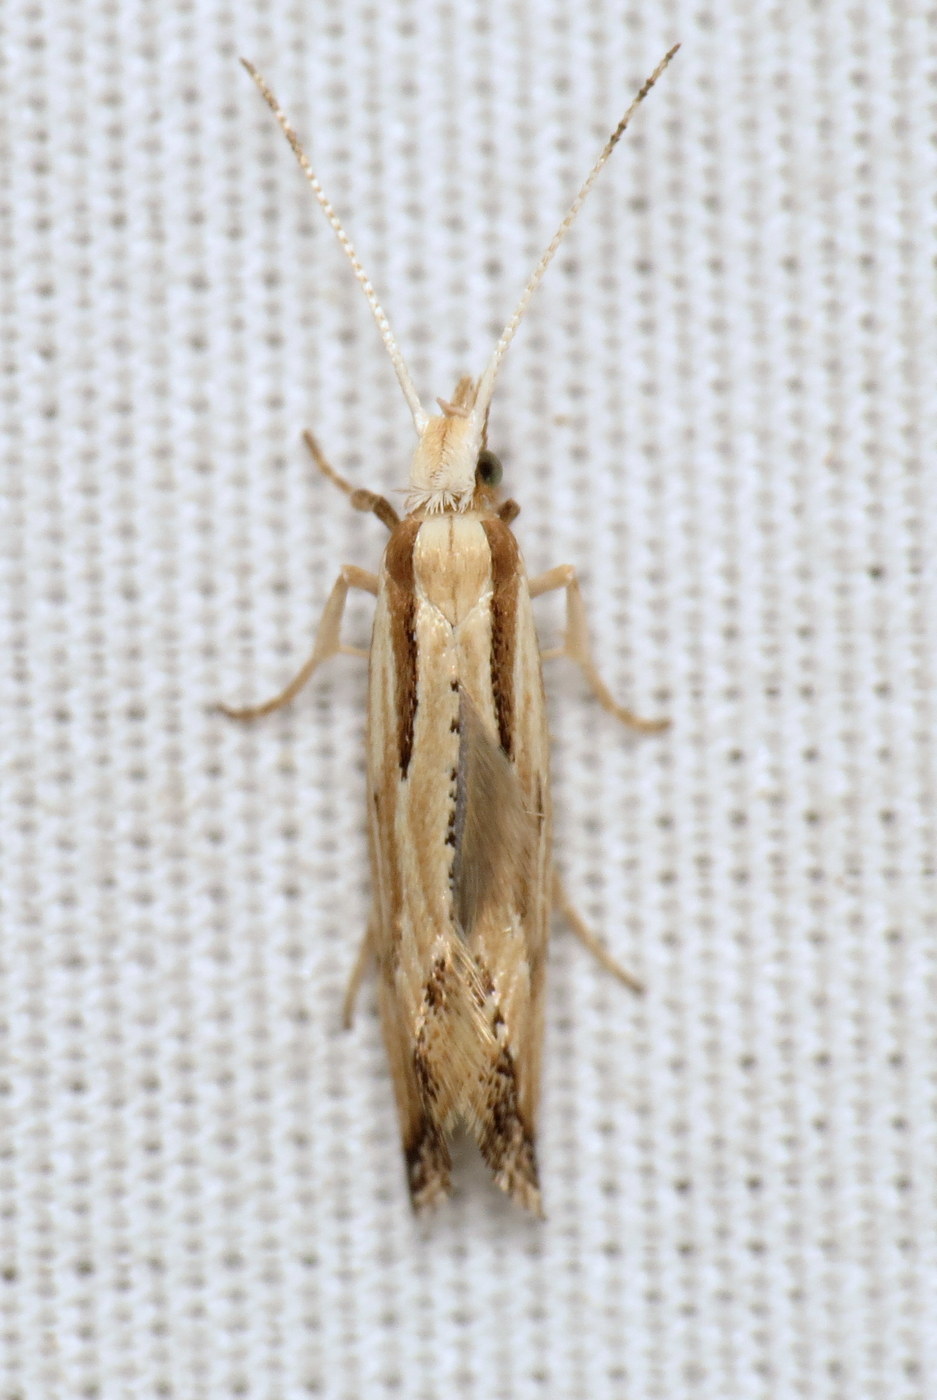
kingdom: Animalia
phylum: Arthropoda
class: Insecta
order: Lepidoptera
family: Plutellidae
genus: Plutella
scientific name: Plutella porrectella
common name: Dame's rocket moth
